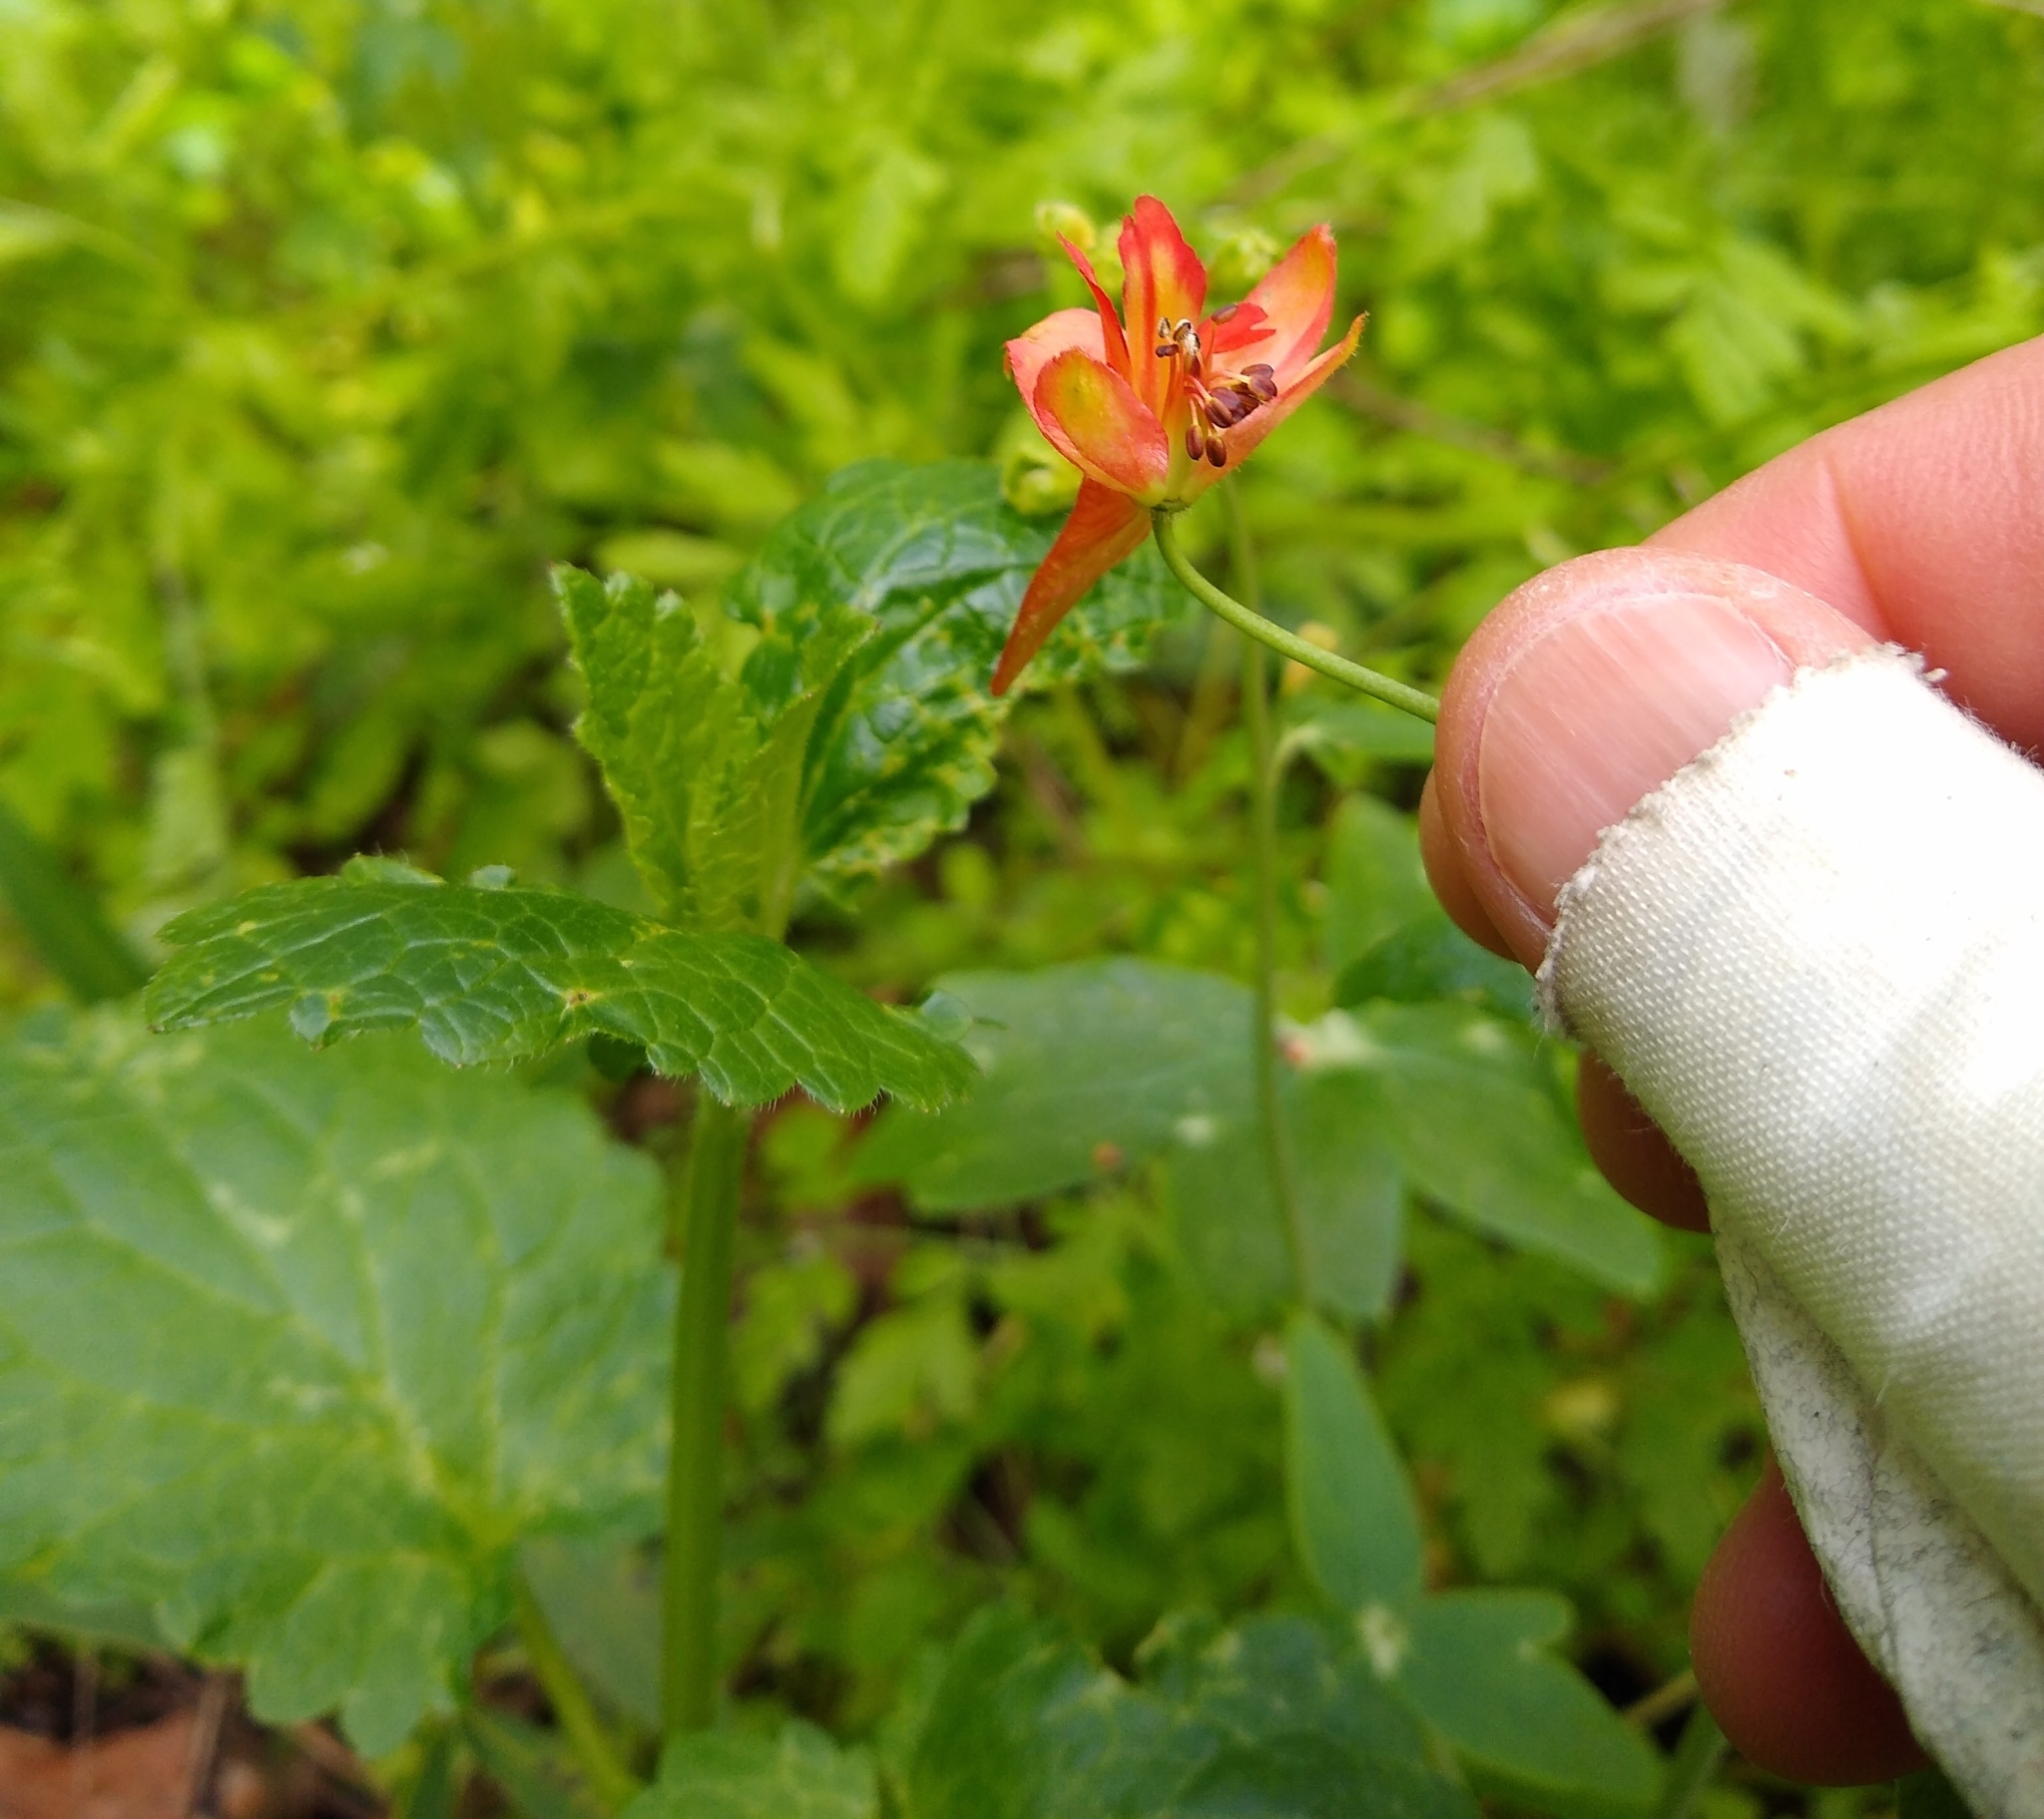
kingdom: Plantae
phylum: Tracheophyta
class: Magnoliopsida
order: Ranunculales
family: Ranunculaceae
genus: Delphinium
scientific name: Delphinium nudicaule
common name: Red larkspur
